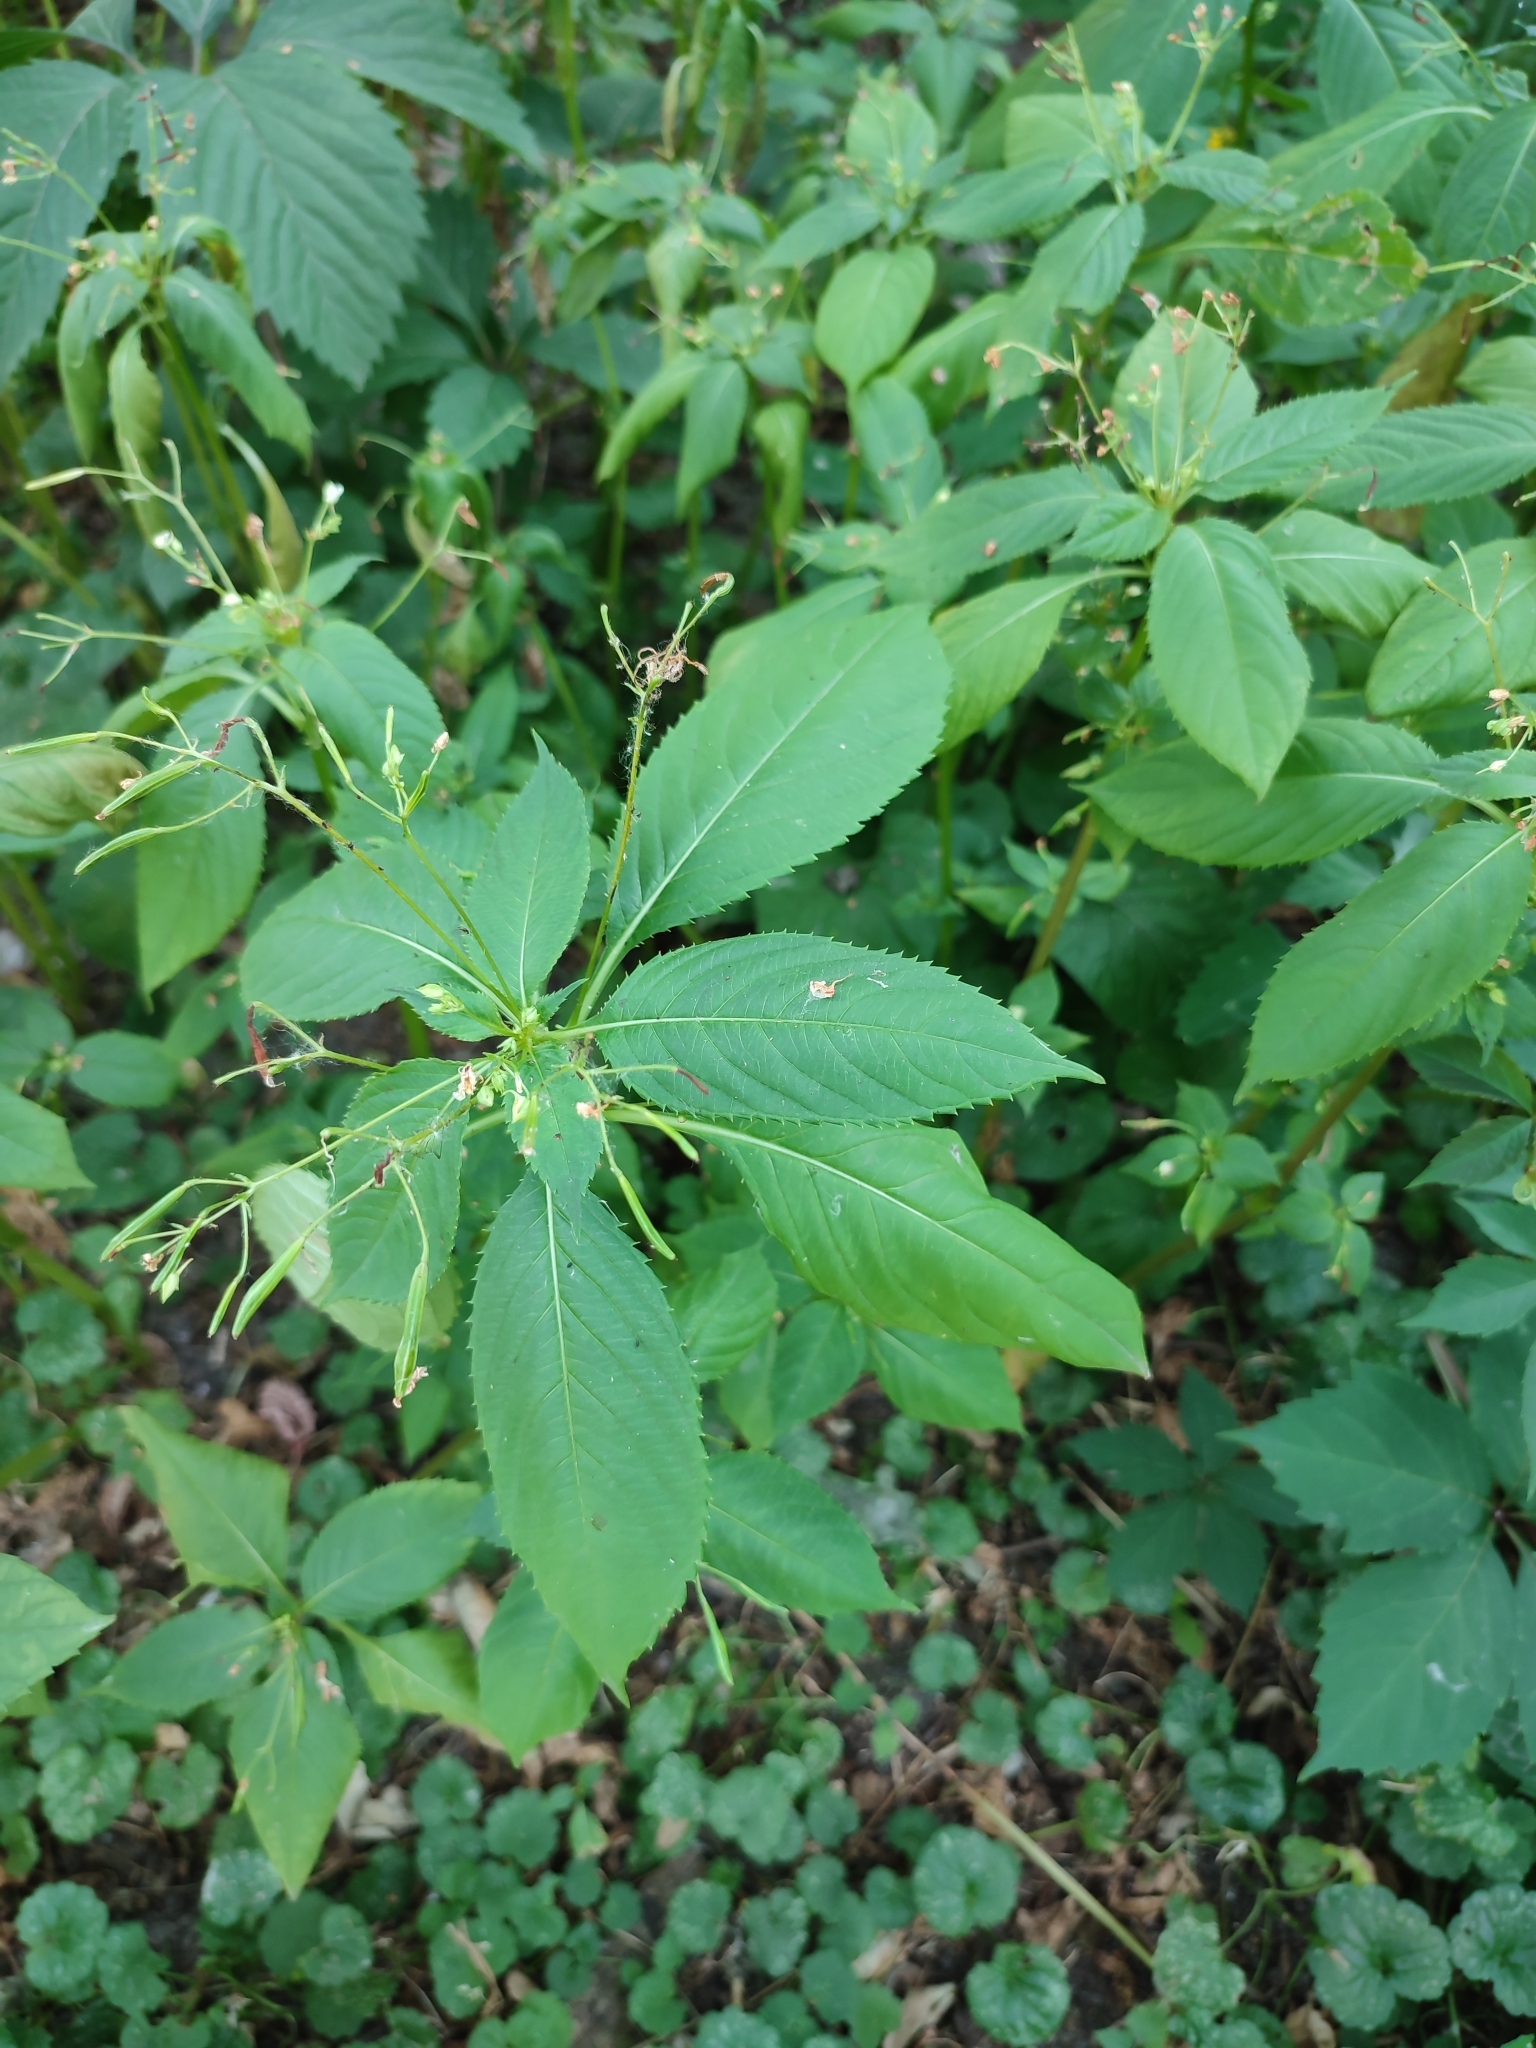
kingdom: Plantae
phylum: Tracheophyta
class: Magnoliopsida
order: Ericales
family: Balsaminaceae
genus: Impatiens
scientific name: Impatiens parviflora
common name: Small balsam
